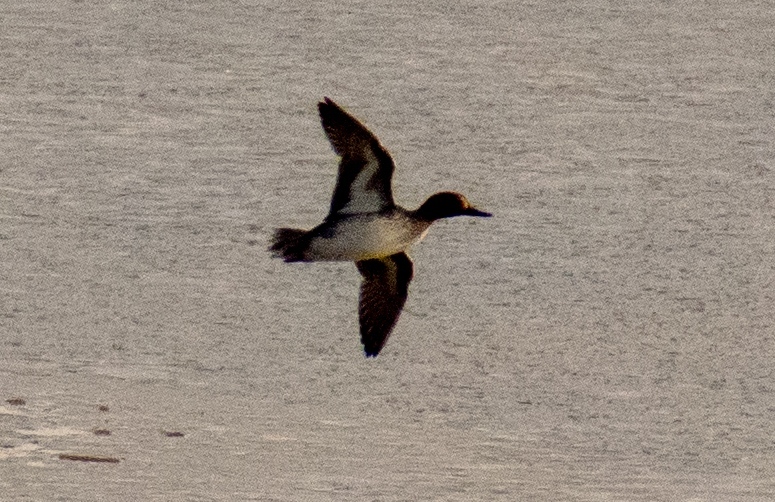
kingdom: Animalia
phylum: Chordata
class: Aves
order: Anseriformes
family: Anatidae
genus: Anas
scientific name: Anas crecca
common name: Eurasian teal
